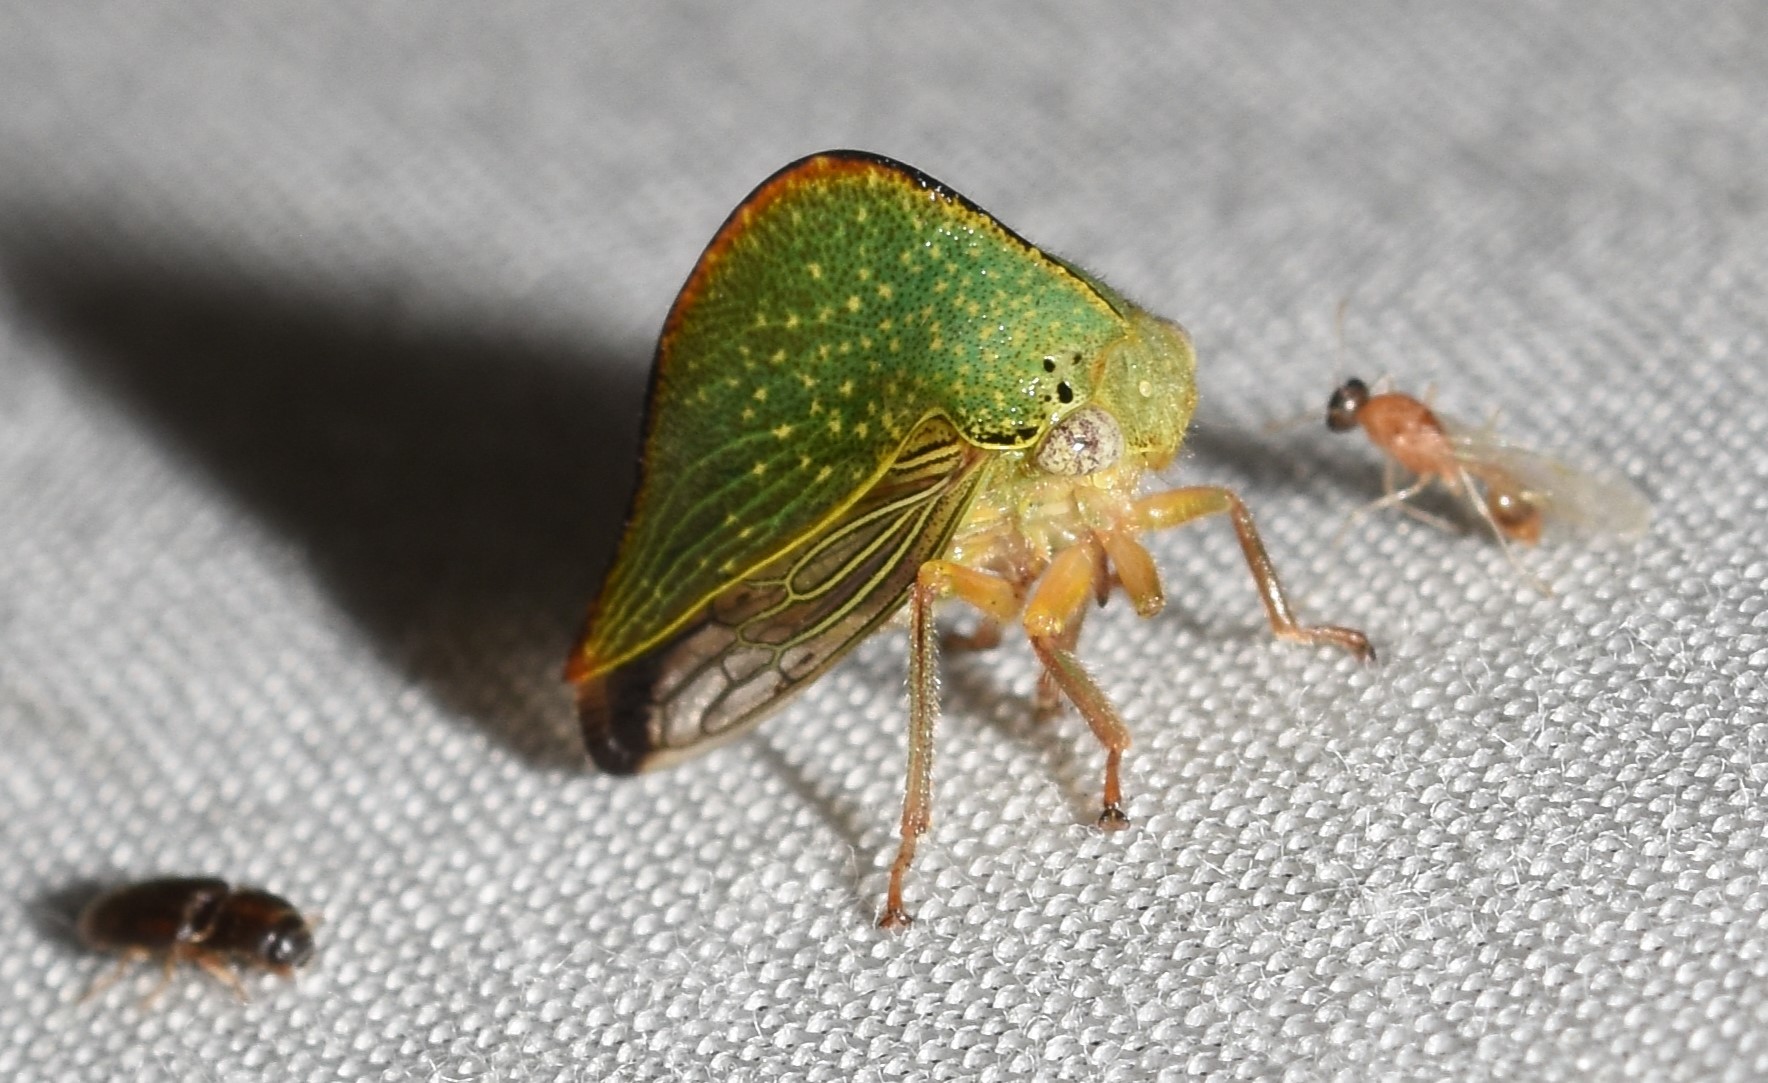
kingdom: Animalia
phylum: Arthropoda
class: Insecta
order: Hemiptera
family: Membracidae
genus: Archasia
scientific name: Archasia pallida
